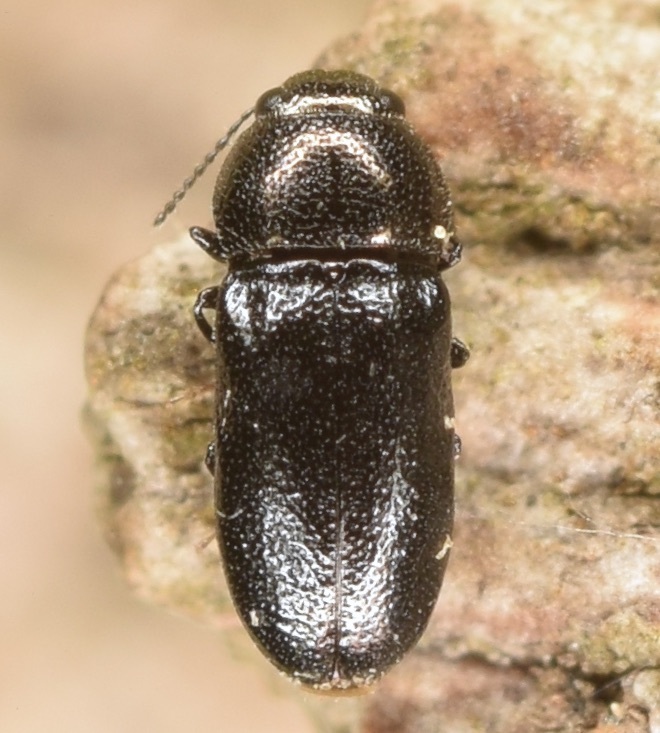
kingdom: Animalia
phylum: Arthropoda
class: Insecta
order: Coleoptera
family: Buprestidae
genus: Mastogenius
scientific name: Mastogenius crenulatus
